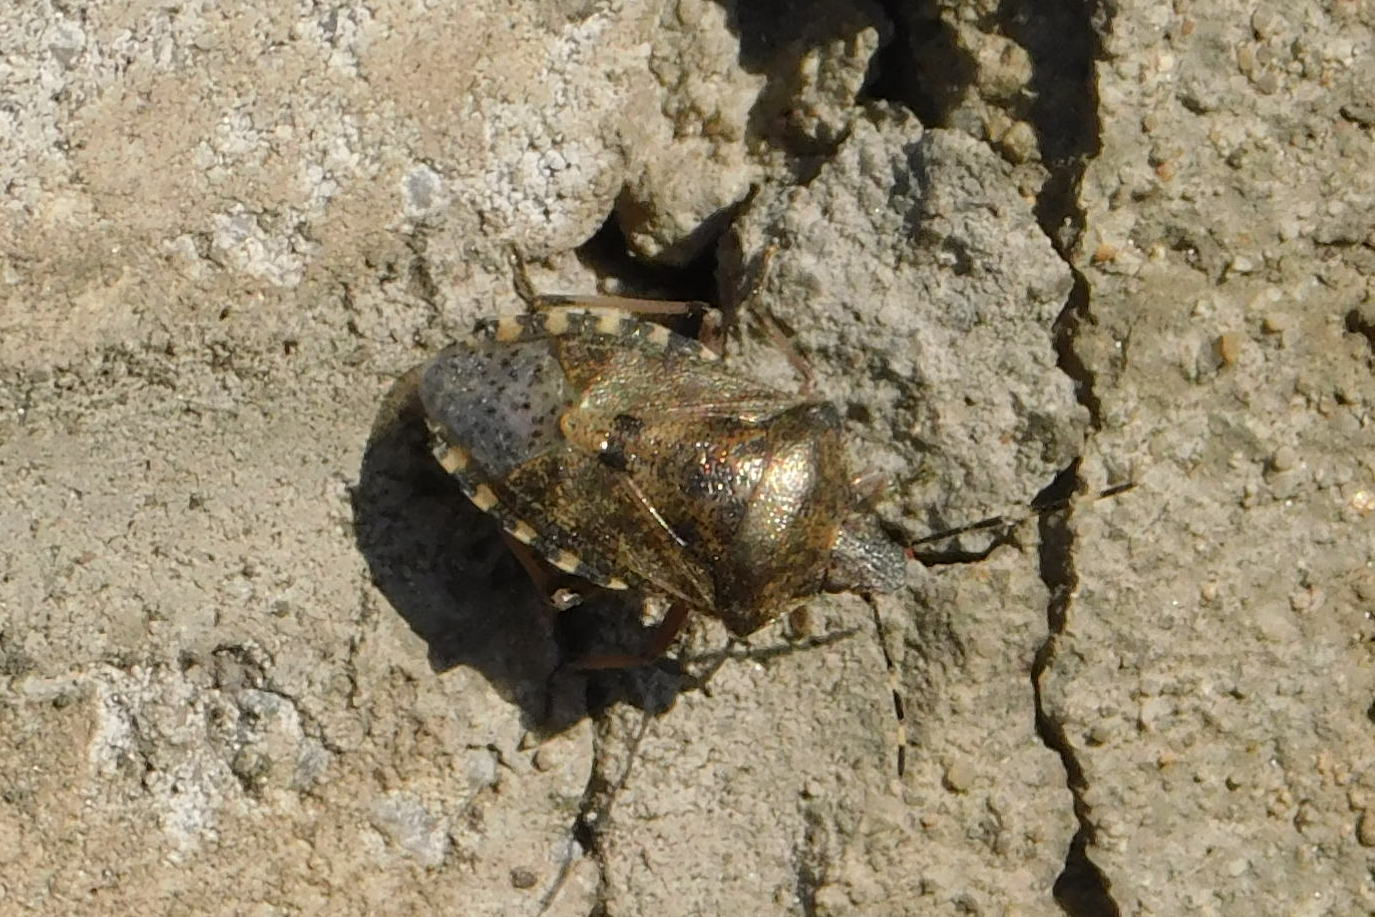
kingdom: Animalia
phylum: Arthropoda
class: Insecta
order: Hemiptera
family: Pentatomidae
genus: Rhaphigaster
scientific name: Rhaphigaster nebulosa
